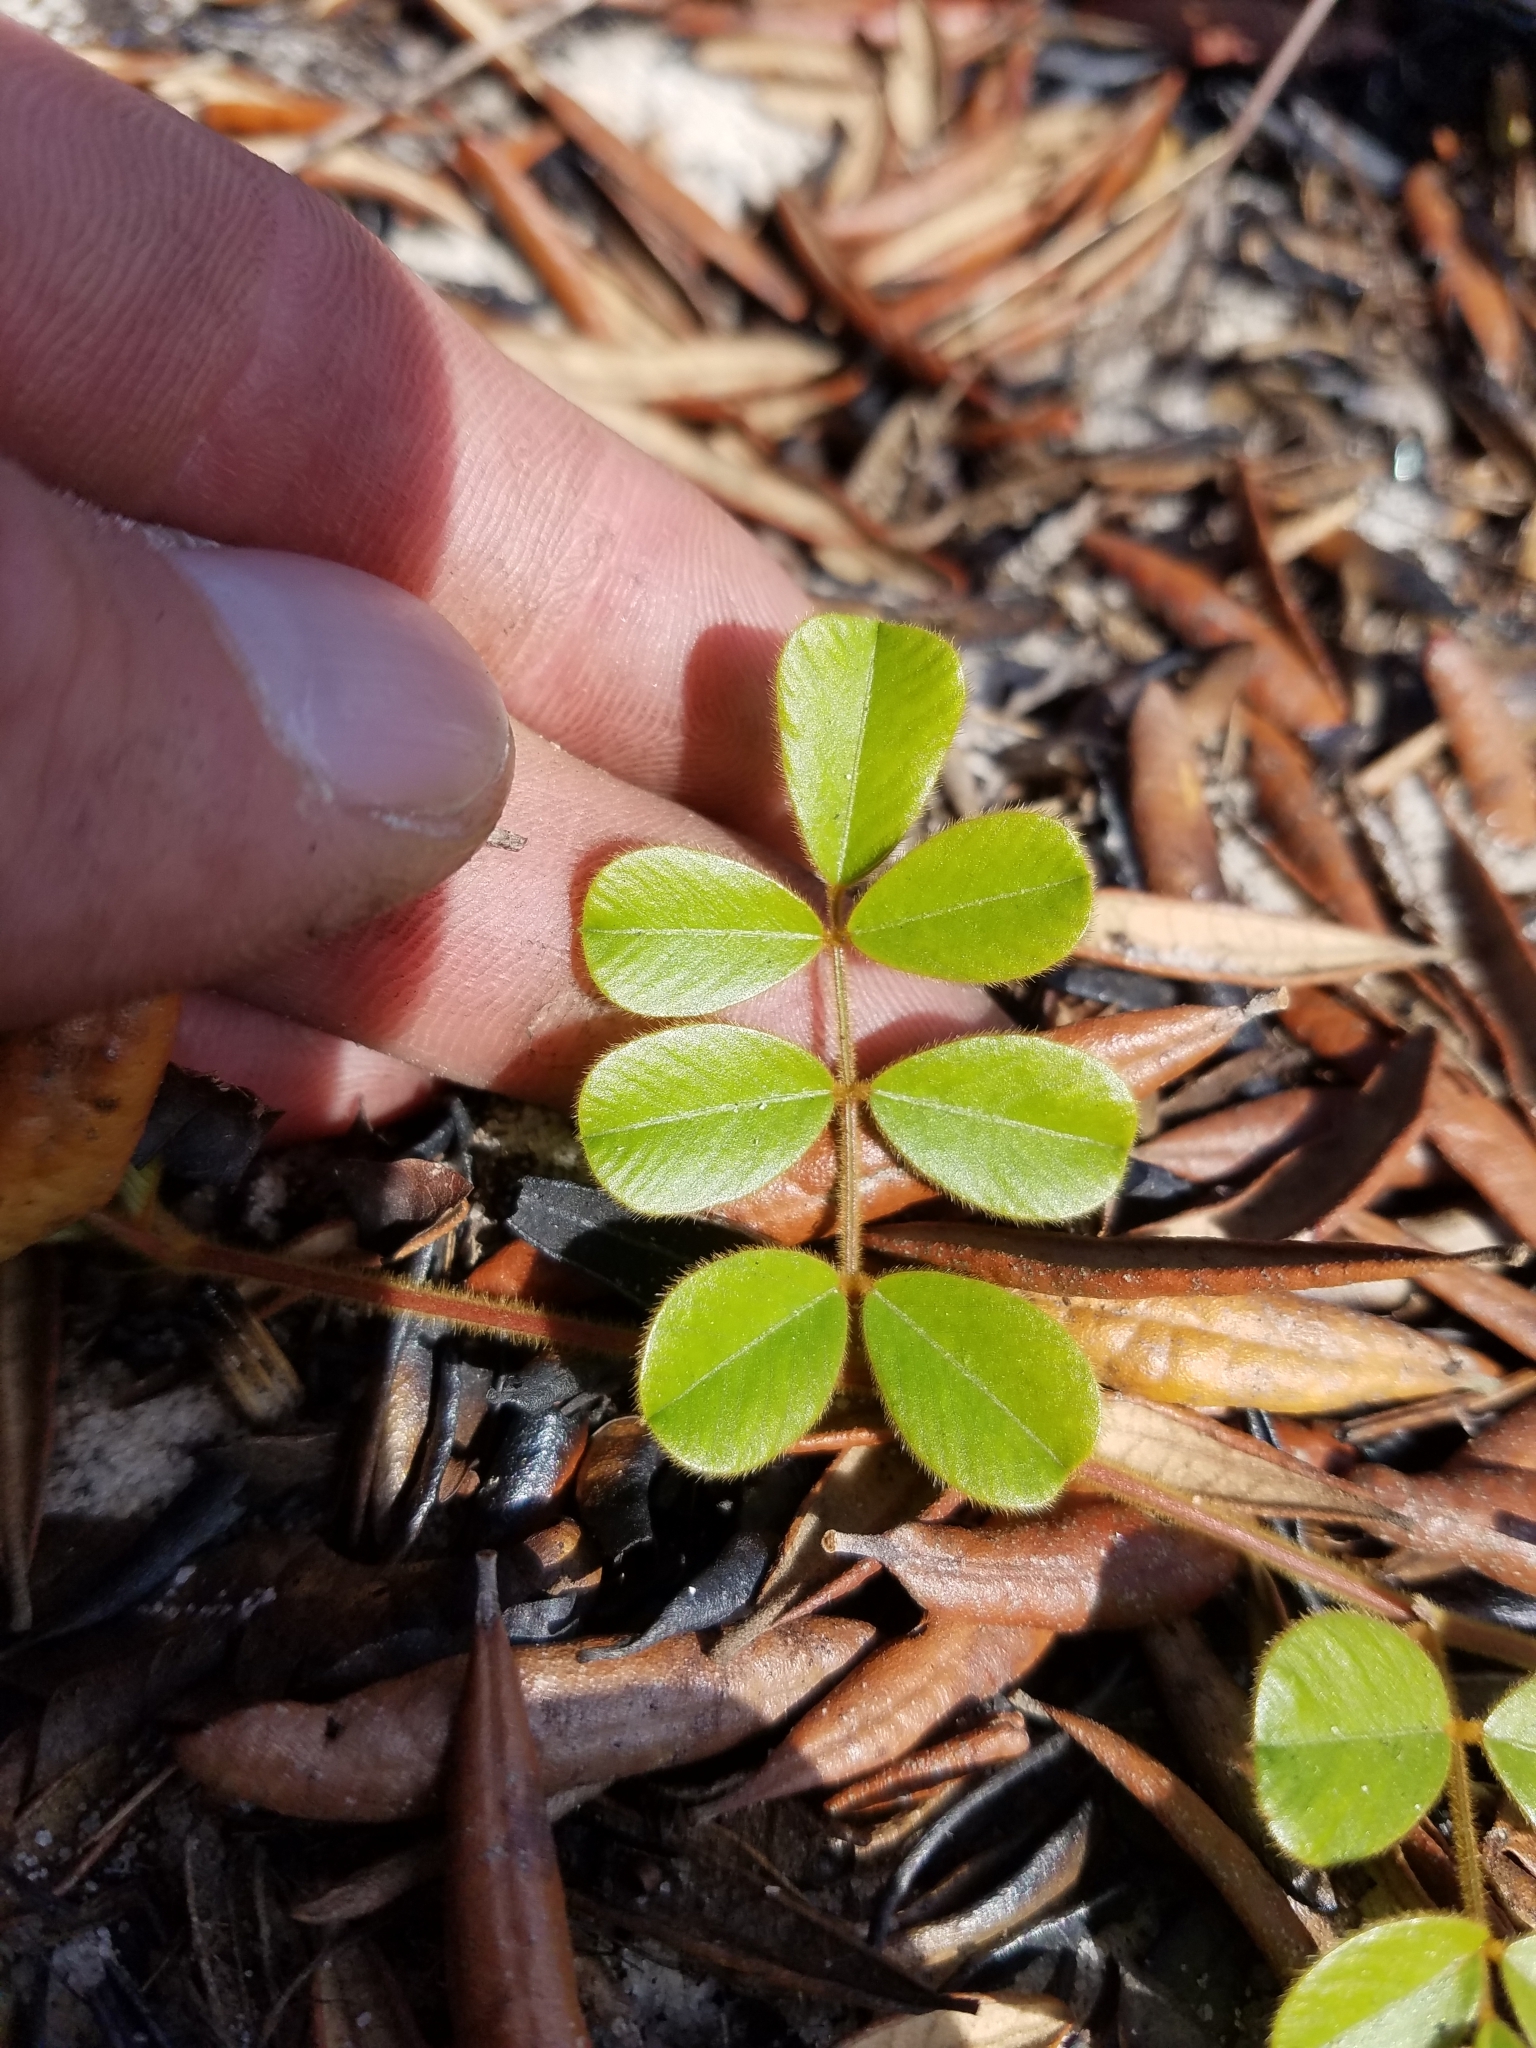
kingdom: Plantae
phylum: Tracheophyta
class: Magnoliopsida
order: Fabales
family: Fabaceae
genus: Tephrosia
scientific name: Tephrosia chrysophylla
